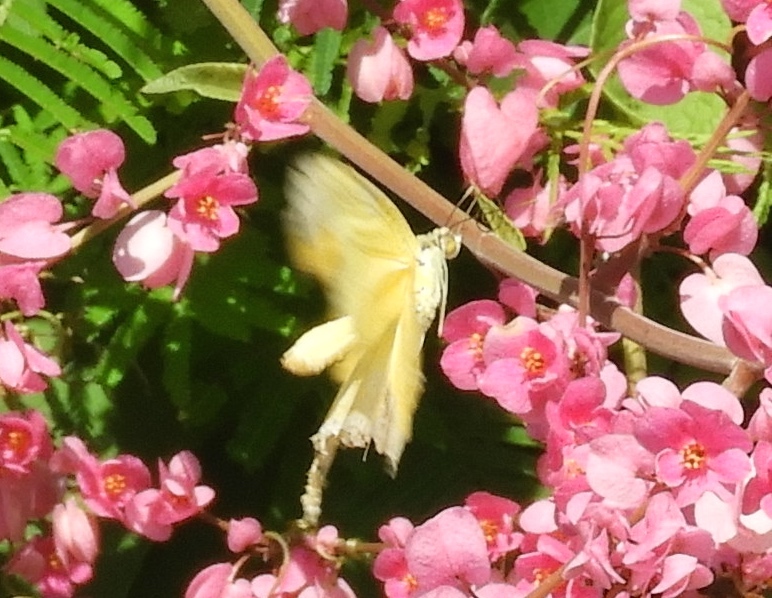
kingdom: Animalia
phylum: Arthropoda
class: Insecta
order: Lepidoptera
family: Pieridae
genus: Phoebis
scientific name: Phoebis agarithe
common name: Large orange sulphur
